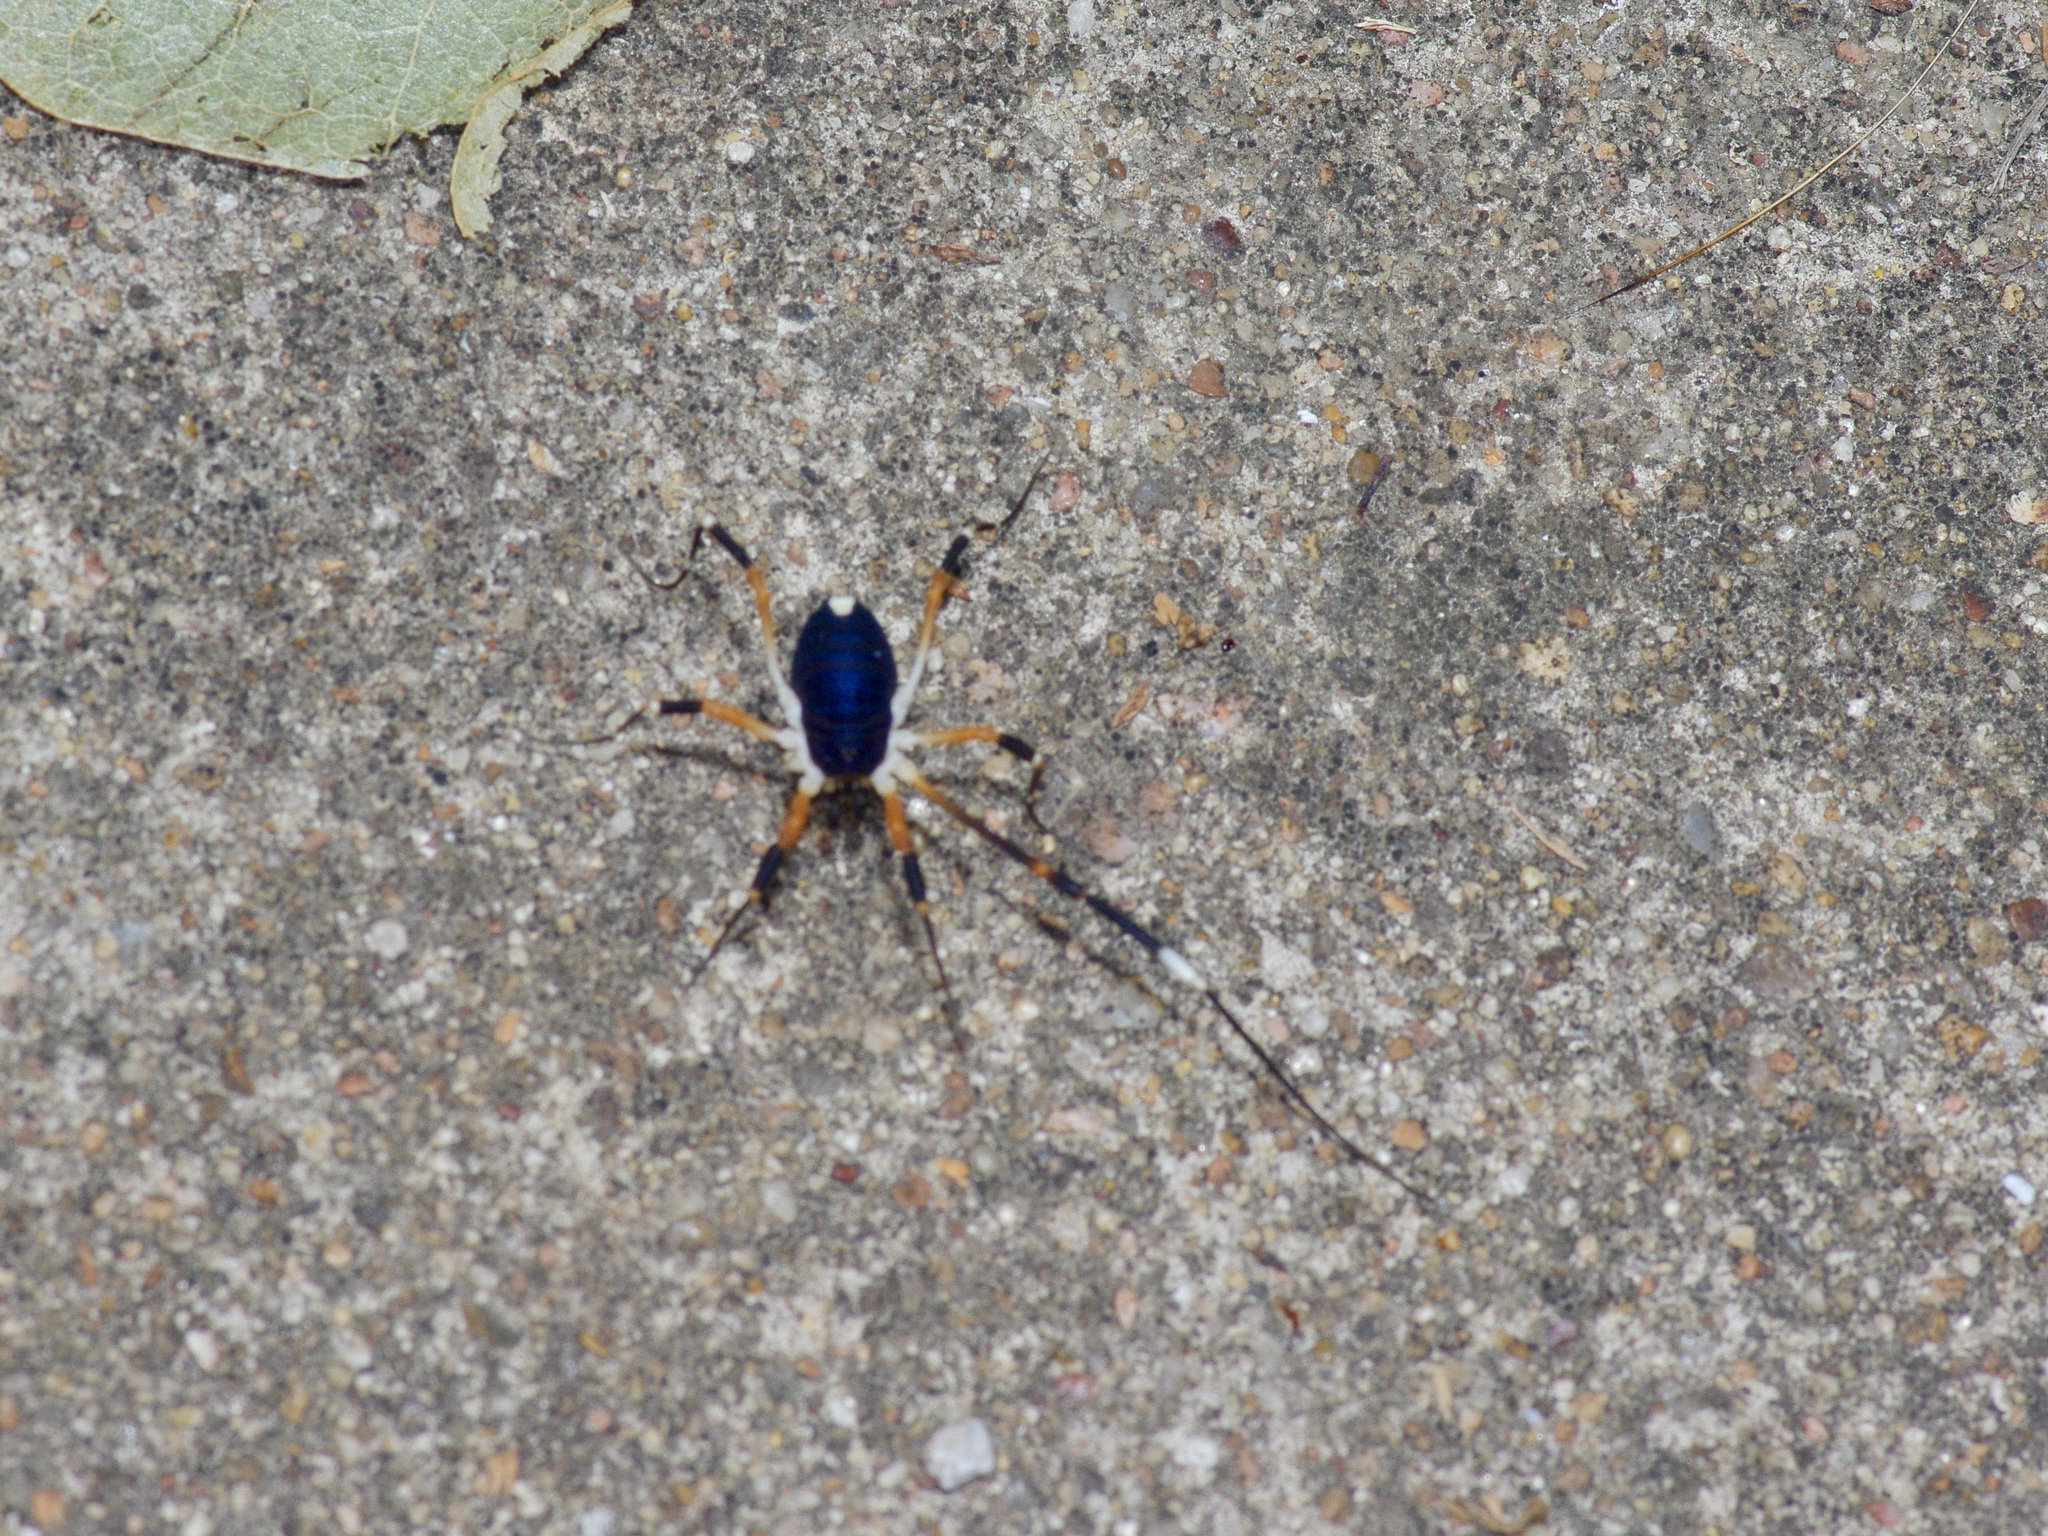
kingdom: Animalia
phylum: Arthropoda
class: Arachnida
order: Opiliones
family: Globipedidae
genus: Dalquestia
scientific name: Dalquestia formosa
